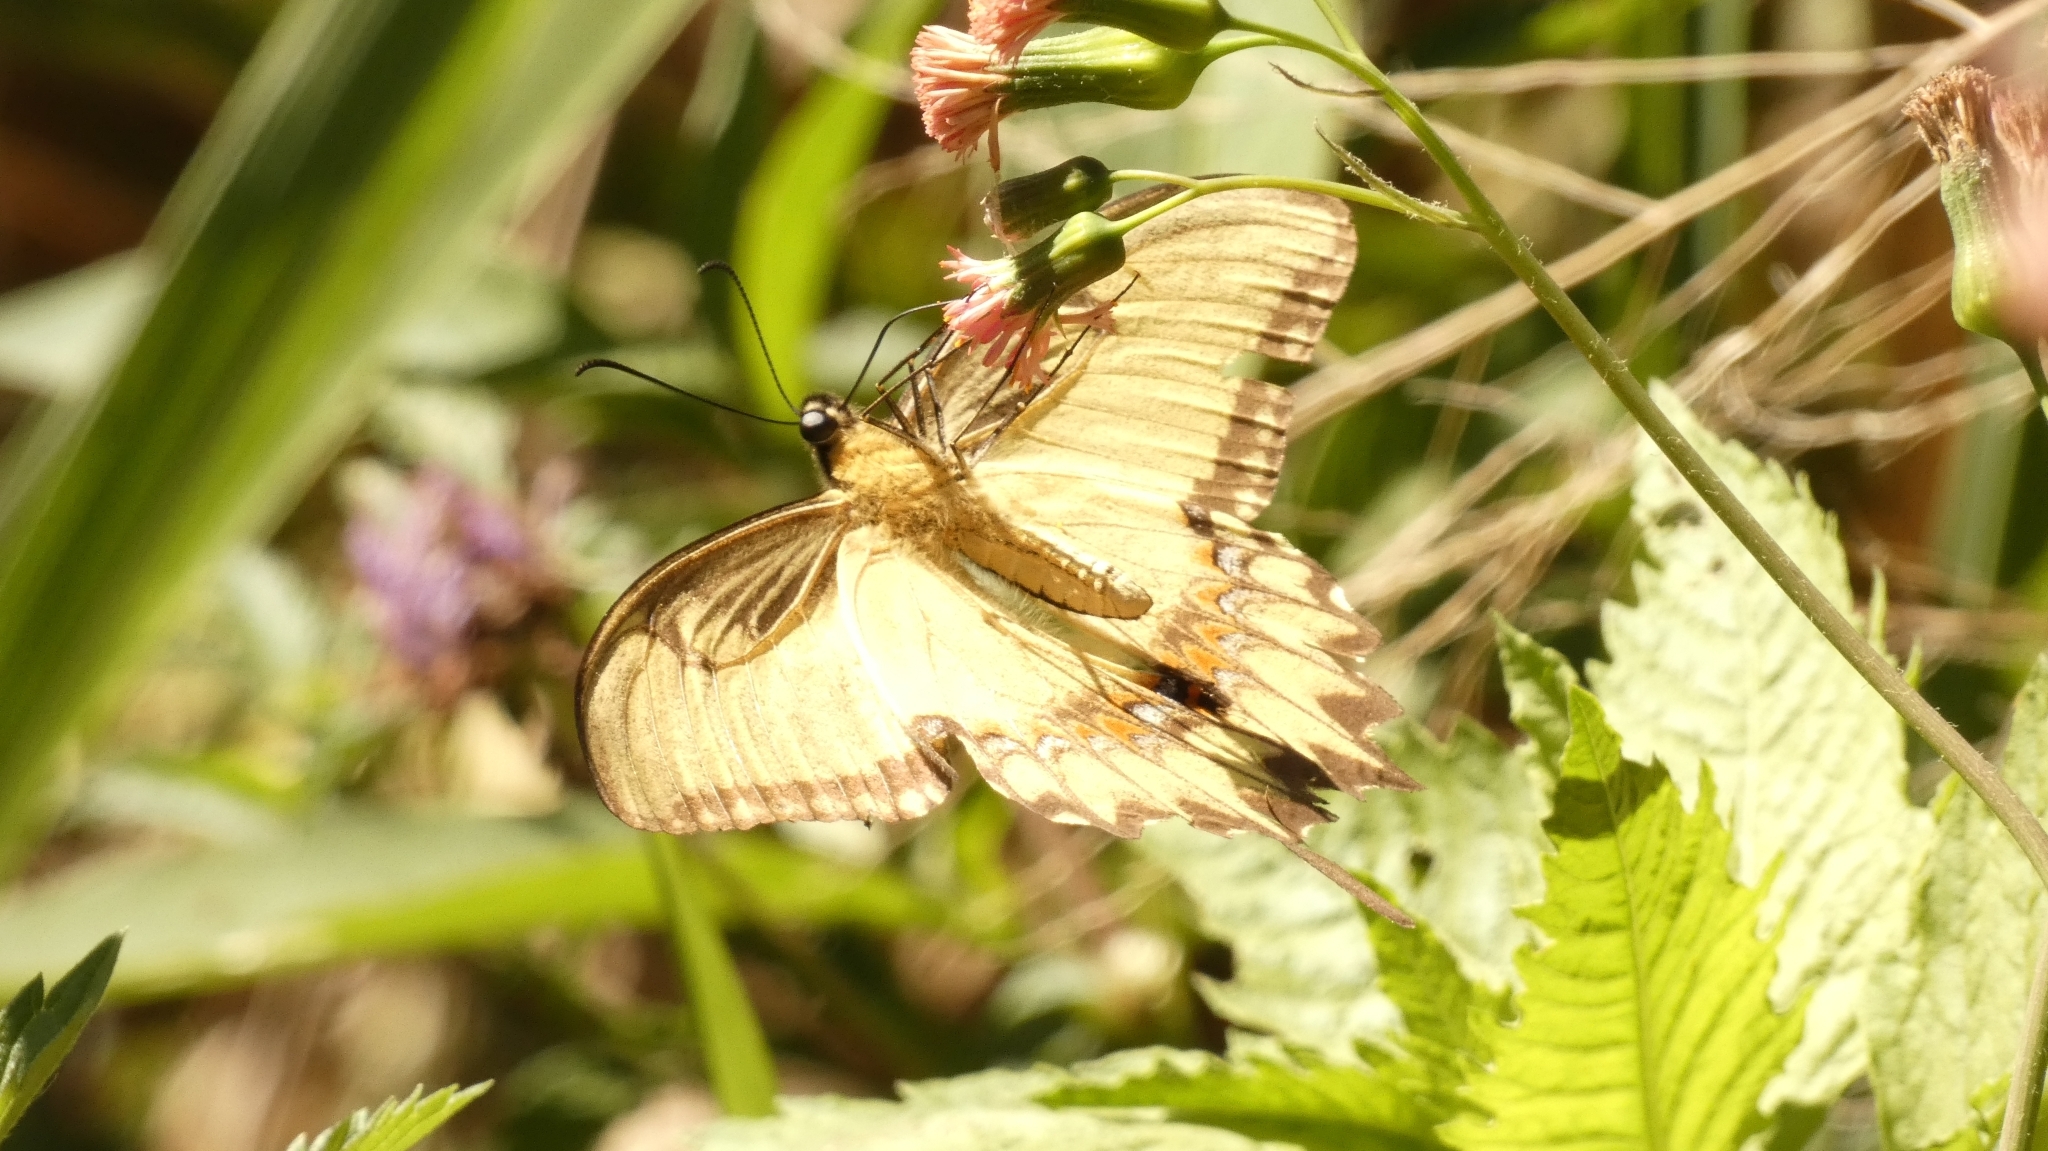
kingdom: Animalia
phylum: Arthropoda
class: Insecta
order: Lepidoptera
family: Papilionidae
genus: Papilio
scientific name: Papilio astyalus
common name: Astyalus swallowtail
